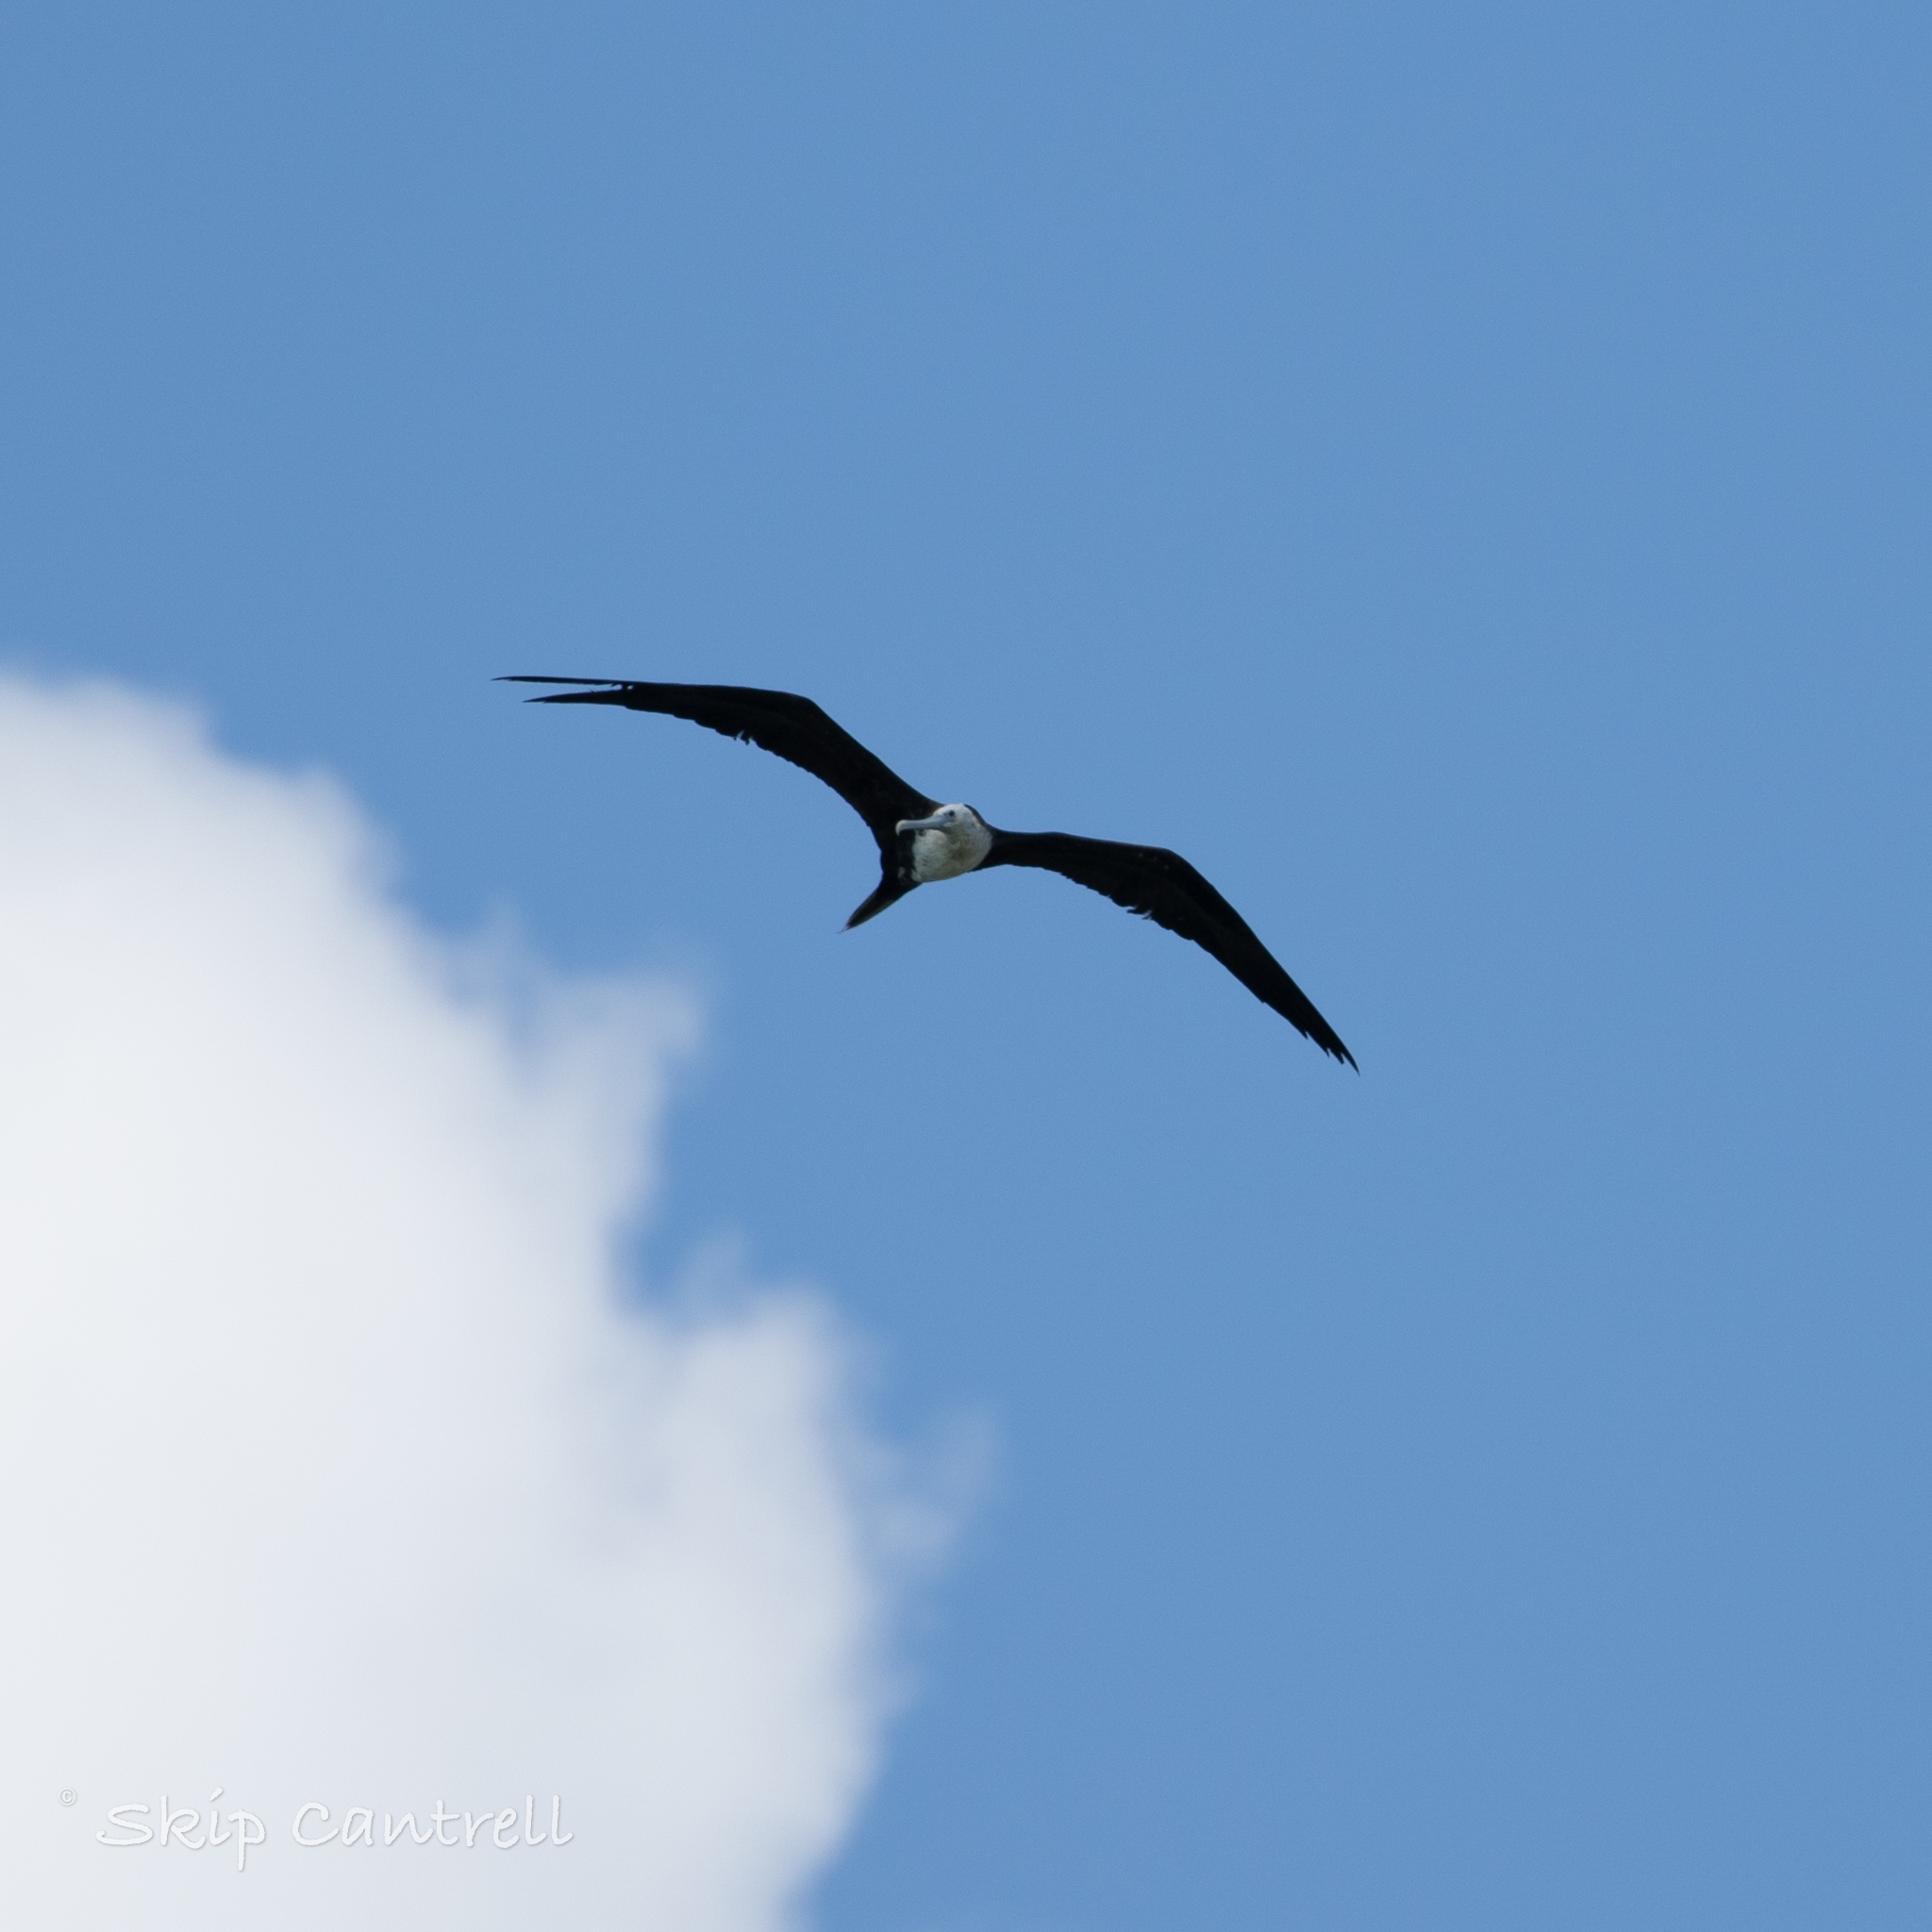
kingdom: Animalia
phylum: Chordata
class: Aves
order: Suliformes
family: Fregatidae
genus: Fregata
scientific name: Fregata magnificens
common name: Magnificent frigatebird
